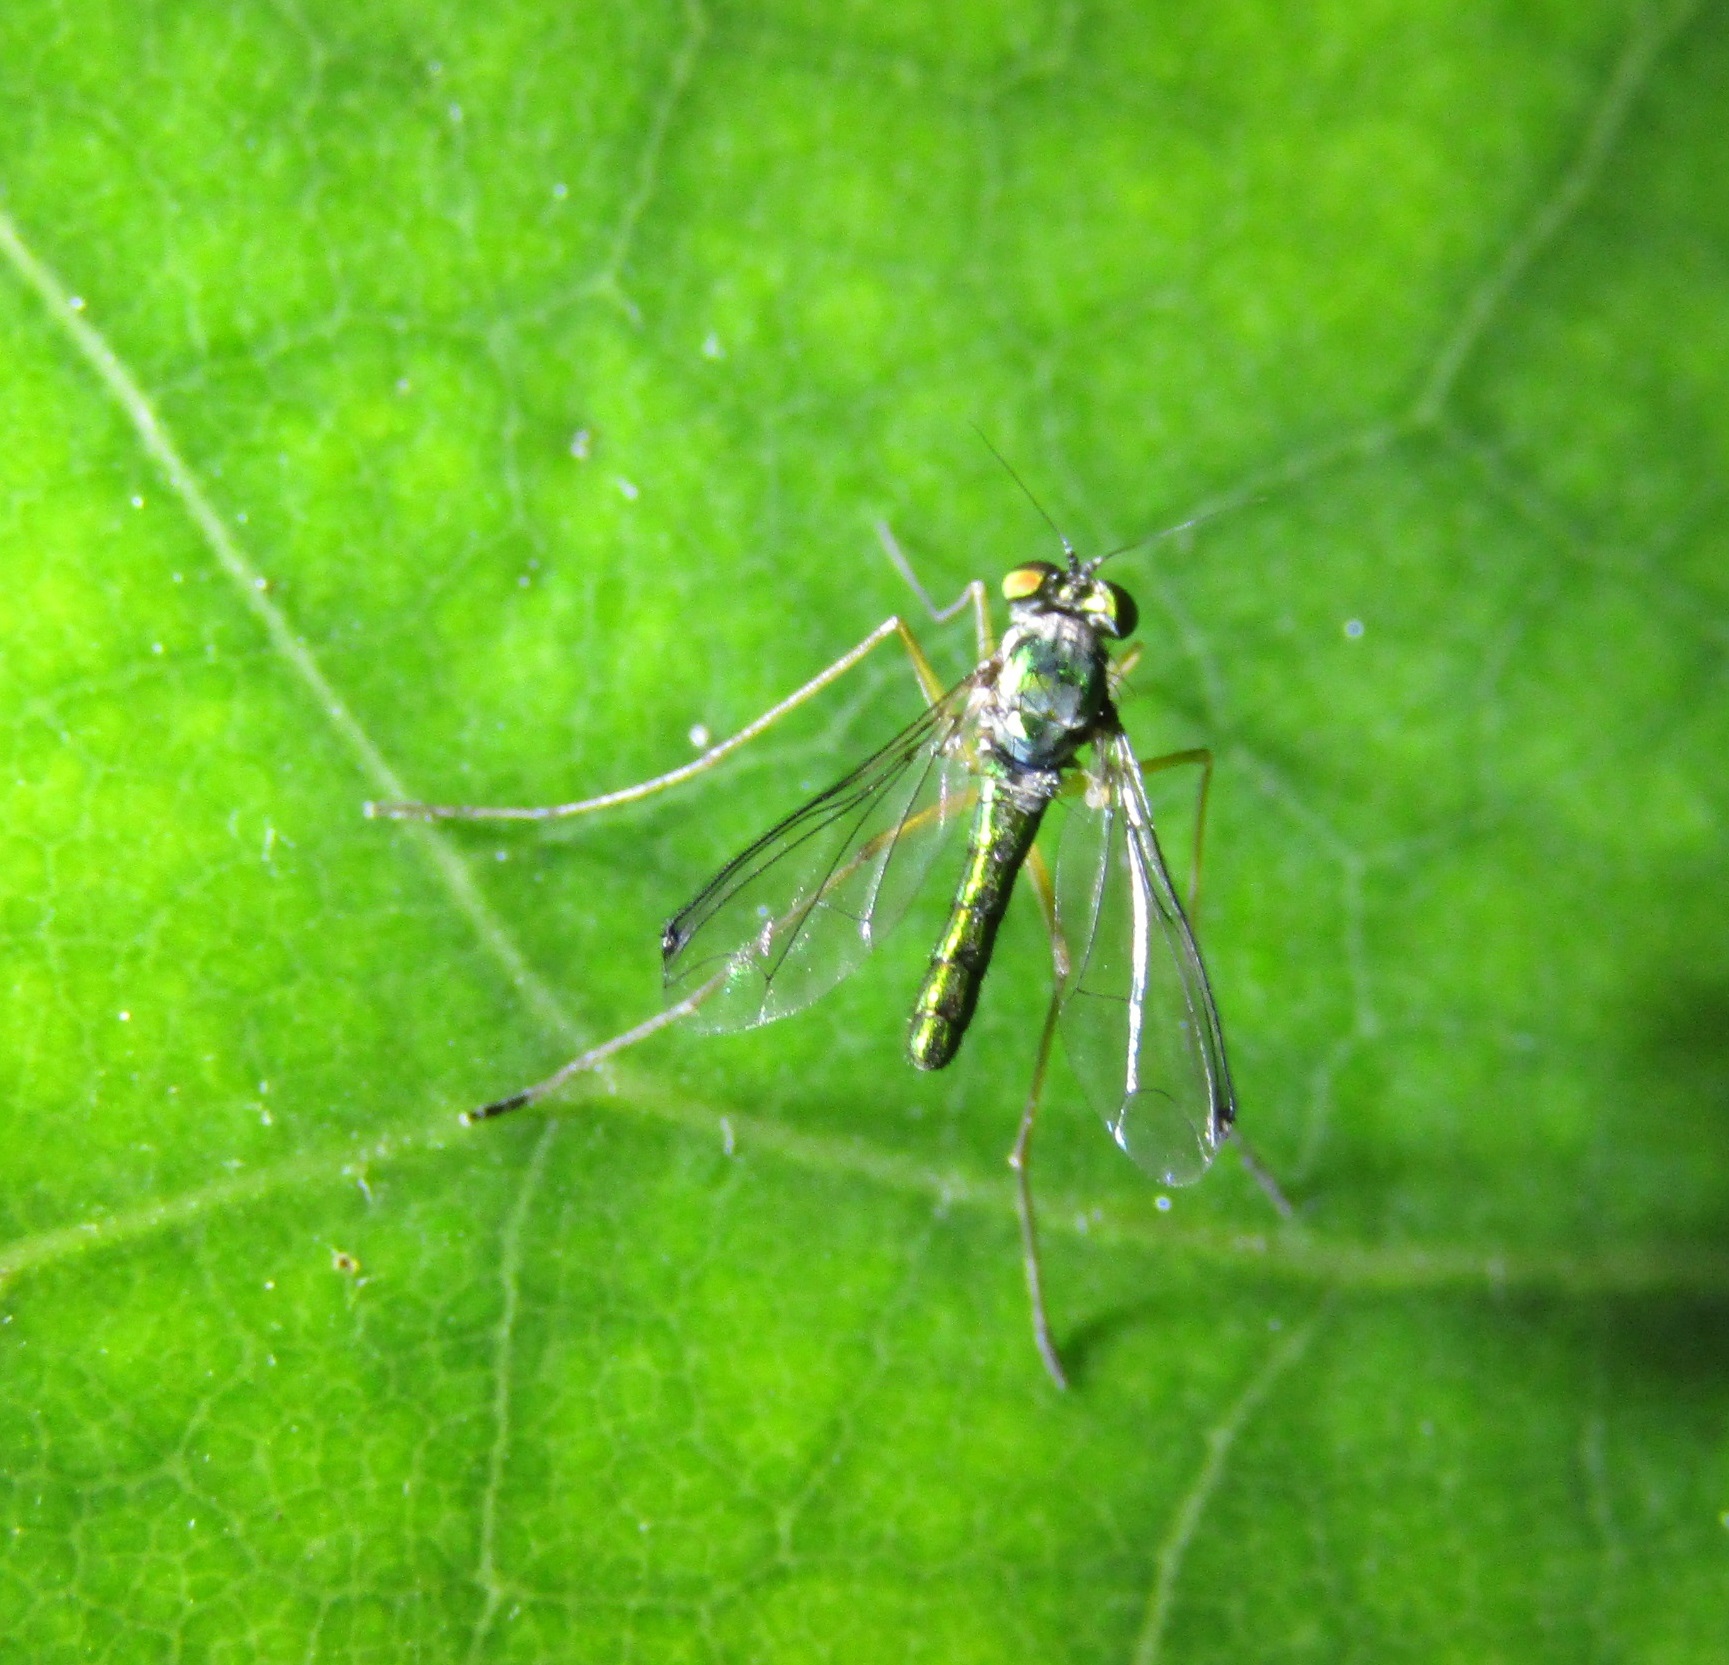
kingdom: Animalia
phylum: Arthropoda
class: Insecta
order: Diptera
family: Dolichopodidae
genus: Parentia
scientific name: Parentia anomalicosta
